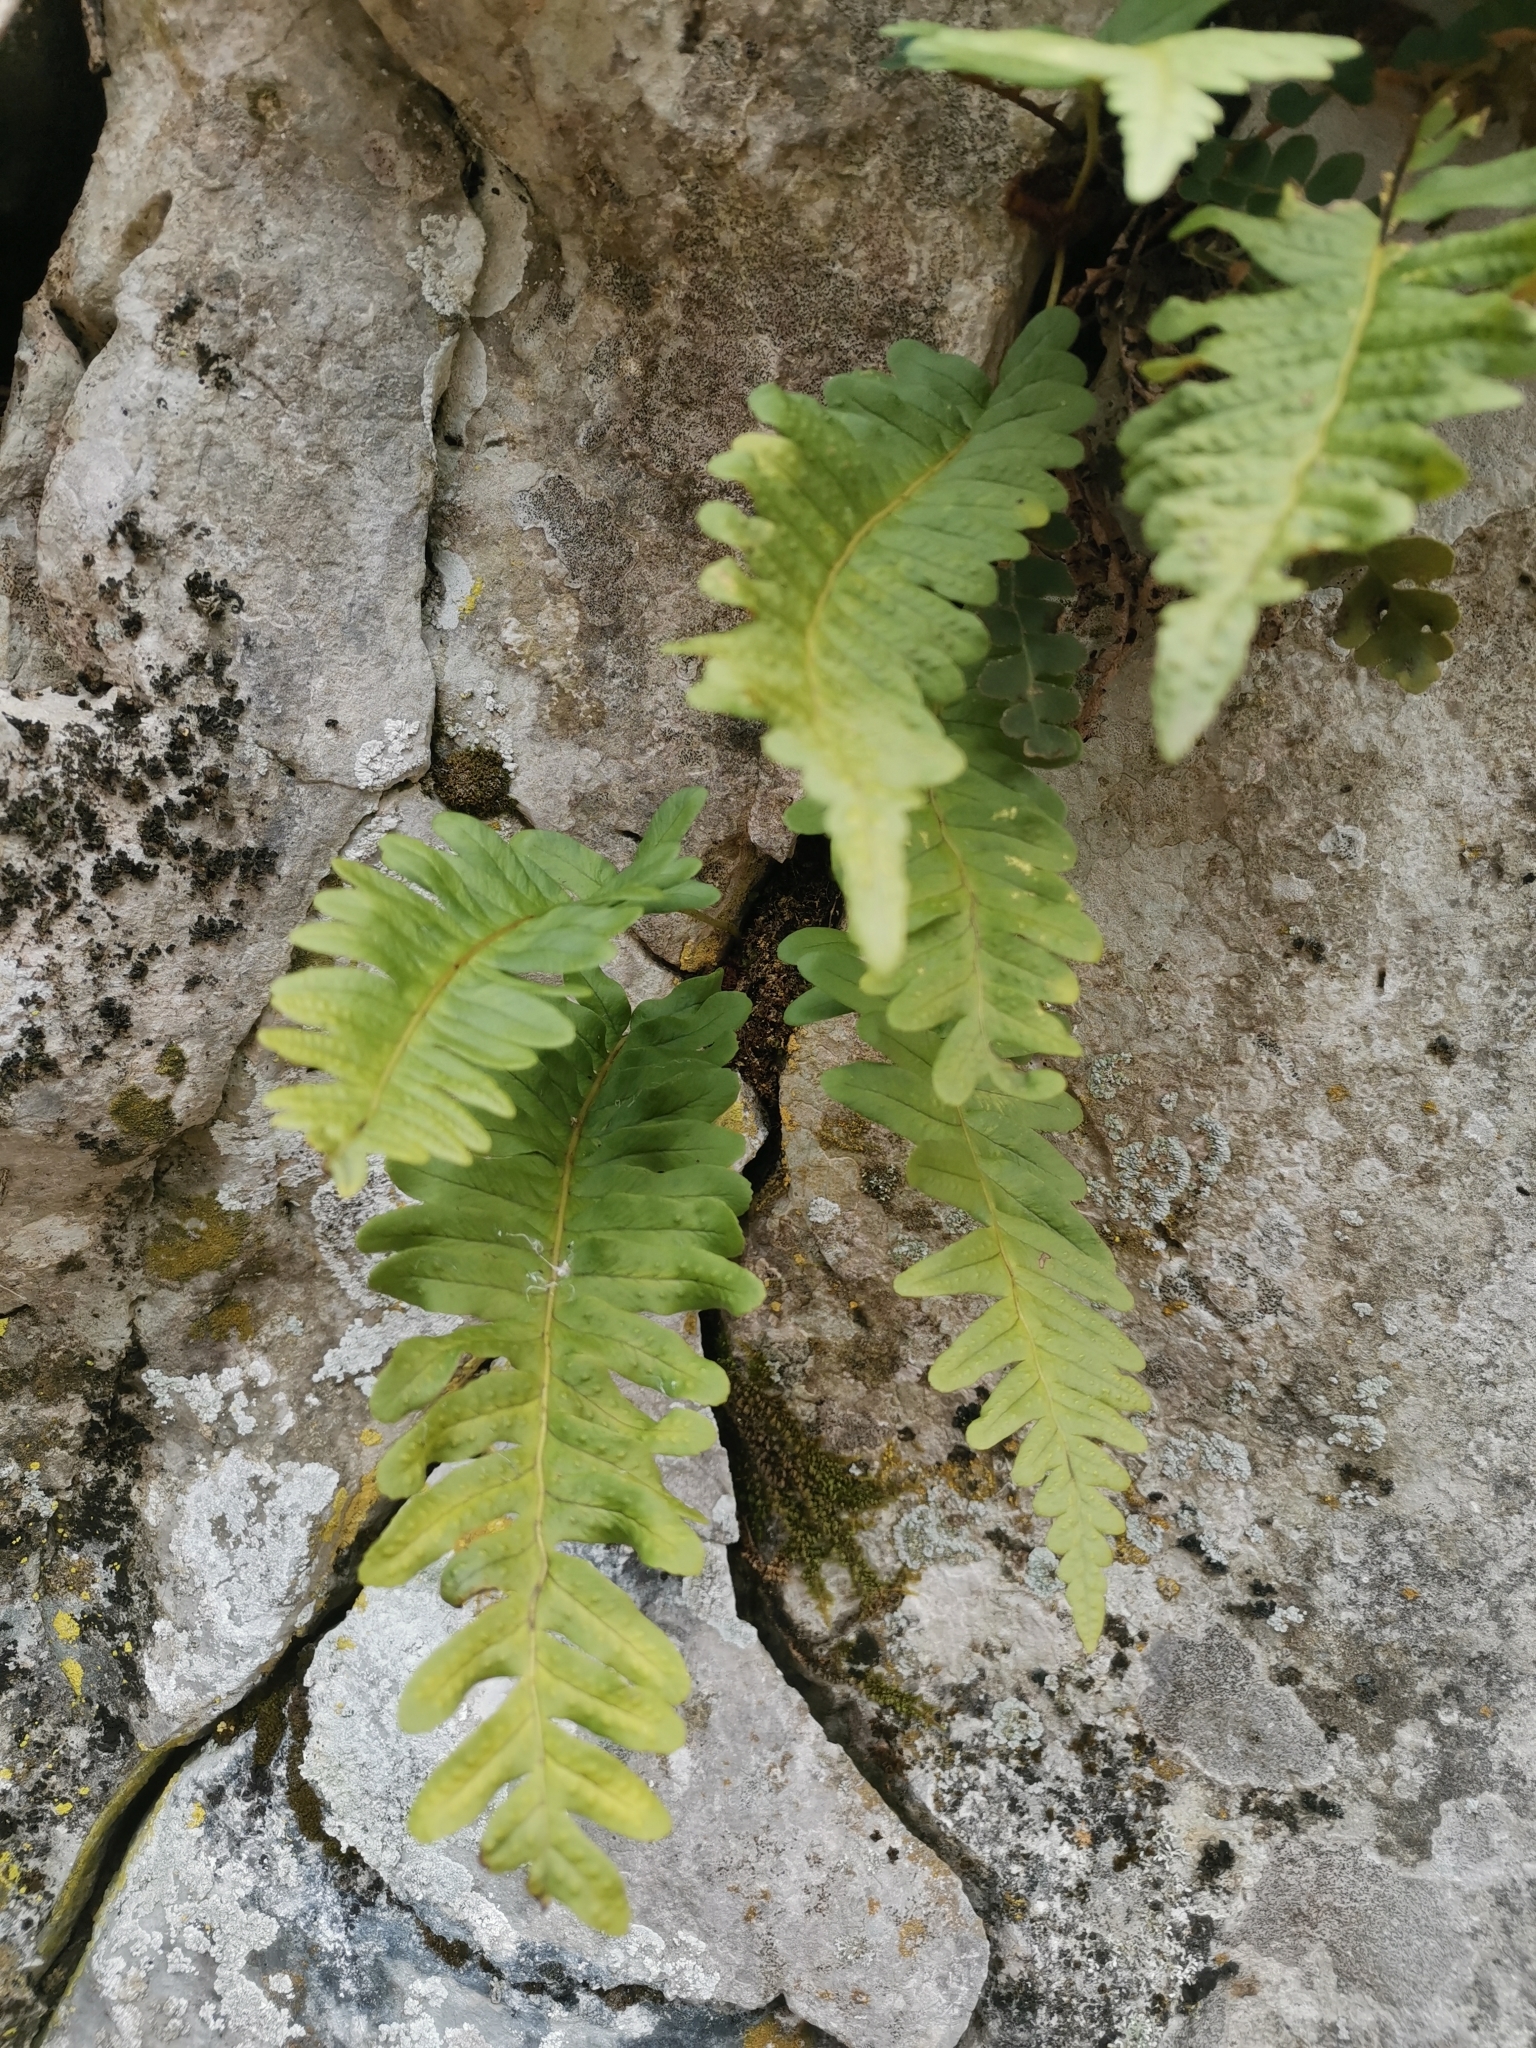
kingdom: Plantae
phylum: Tracheophyta
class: Polypodiopsida
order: Polypodiales
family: Polypodiaceae
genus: Polypodium
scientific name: Polypodium vulgare
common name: Common polypody
